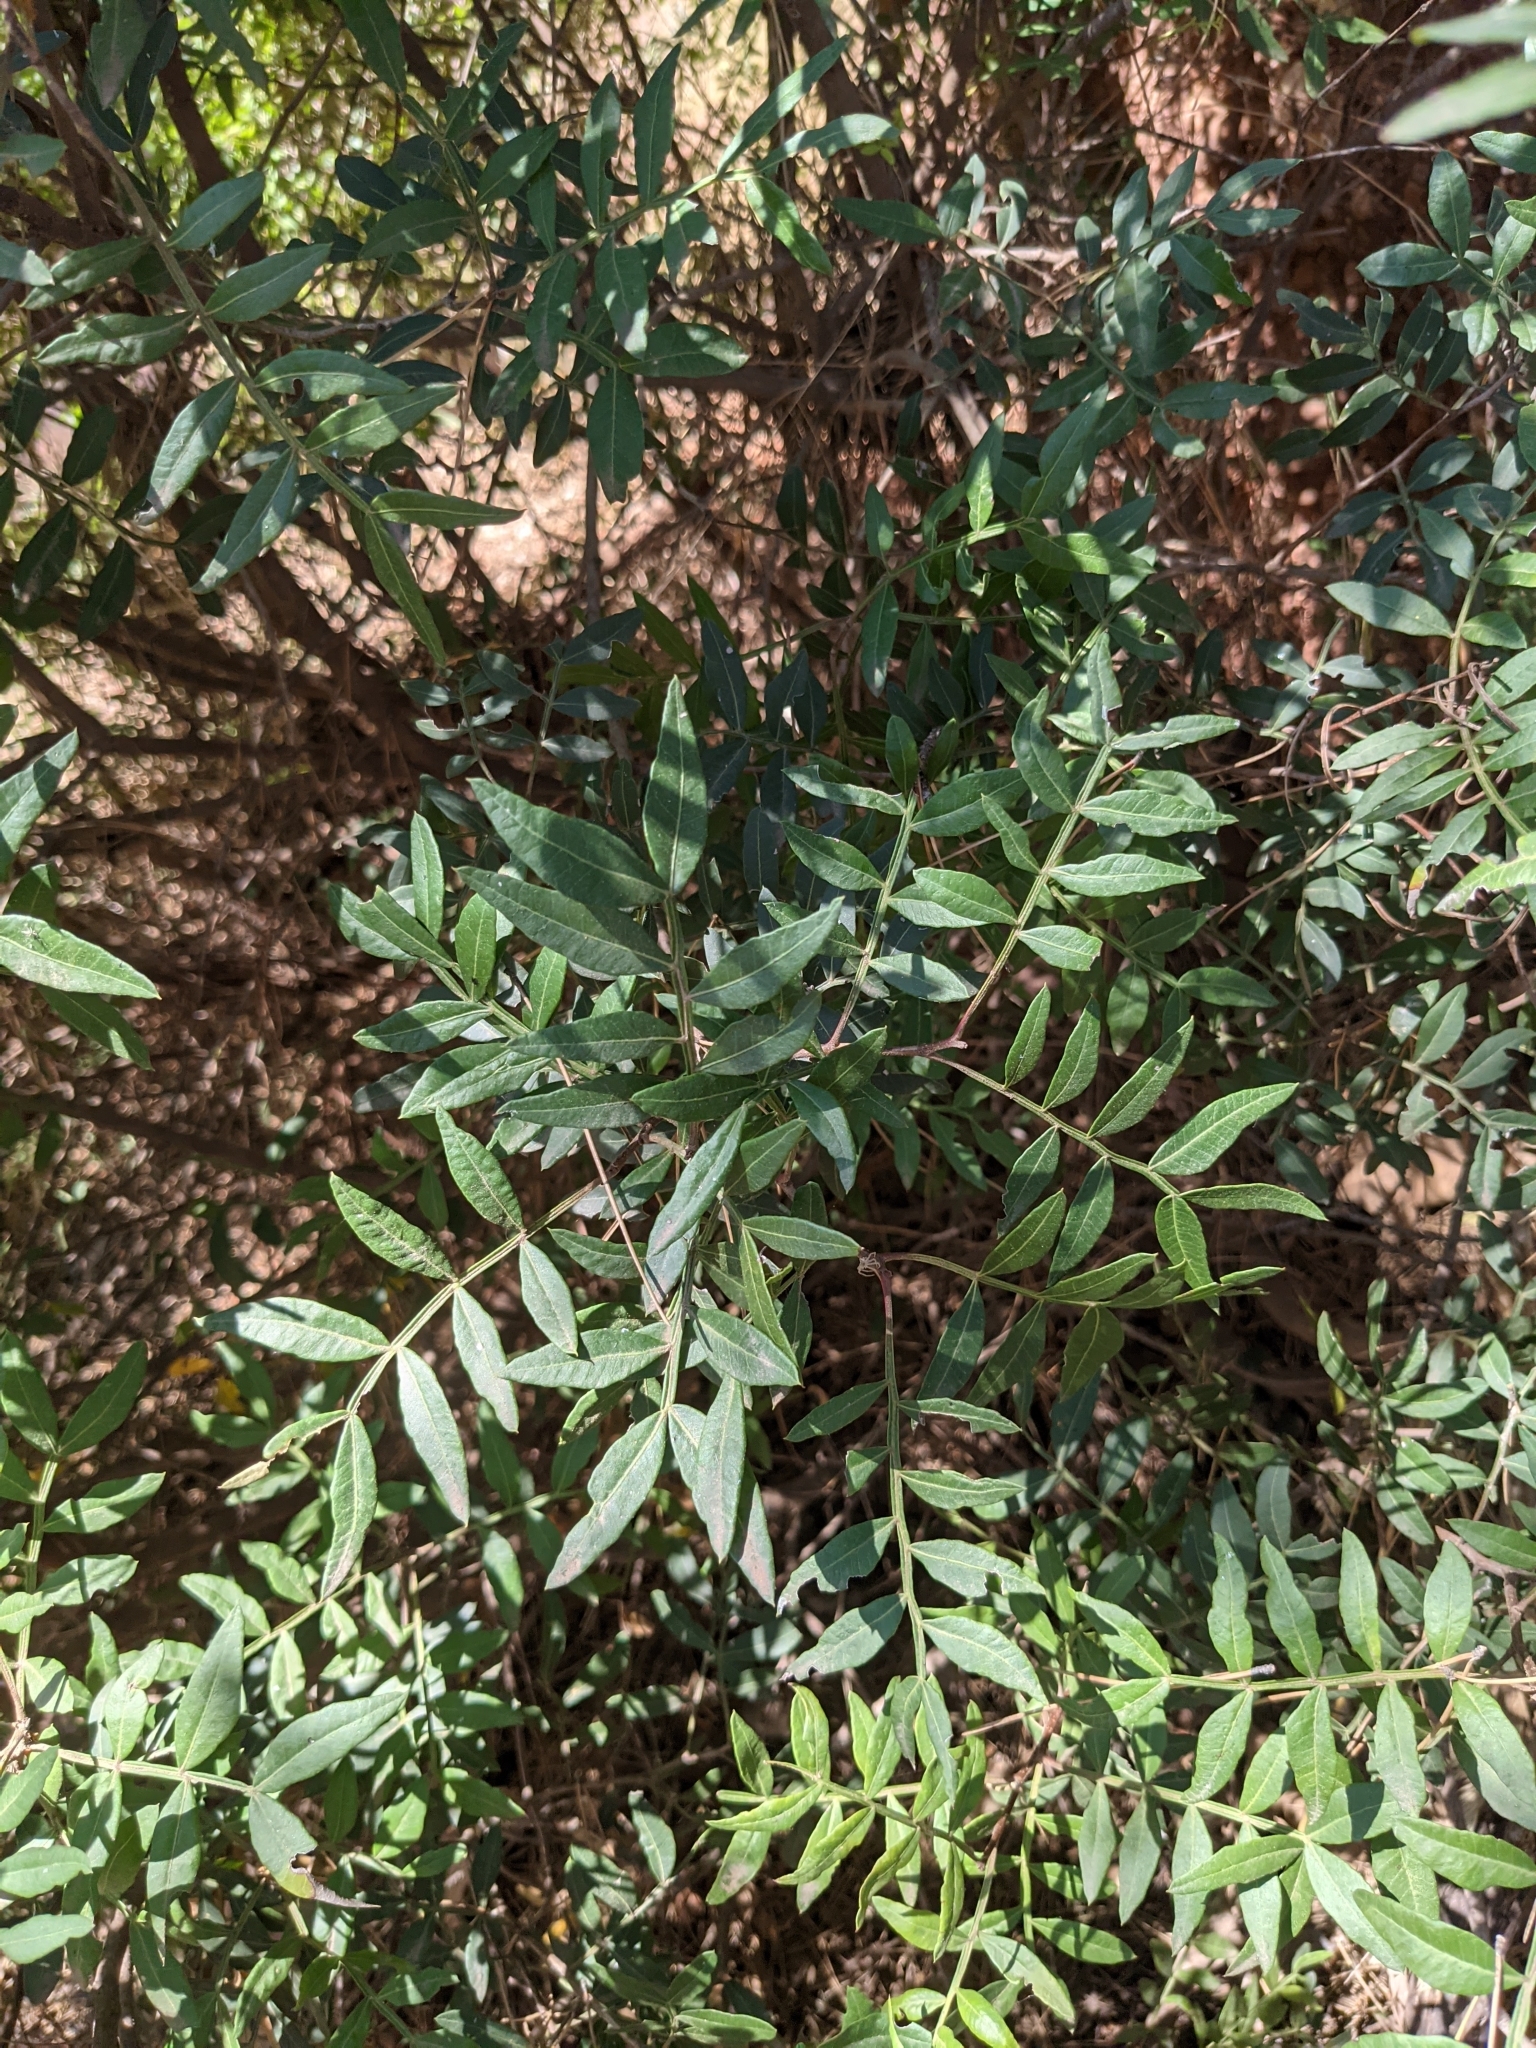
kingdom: Plantae
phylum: Tracheophyta
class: Magnoliopsida
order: Sapindales
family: Anacardiaceae
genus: Pistacia
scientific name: Pistacia lentiscus
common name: Lentisk
